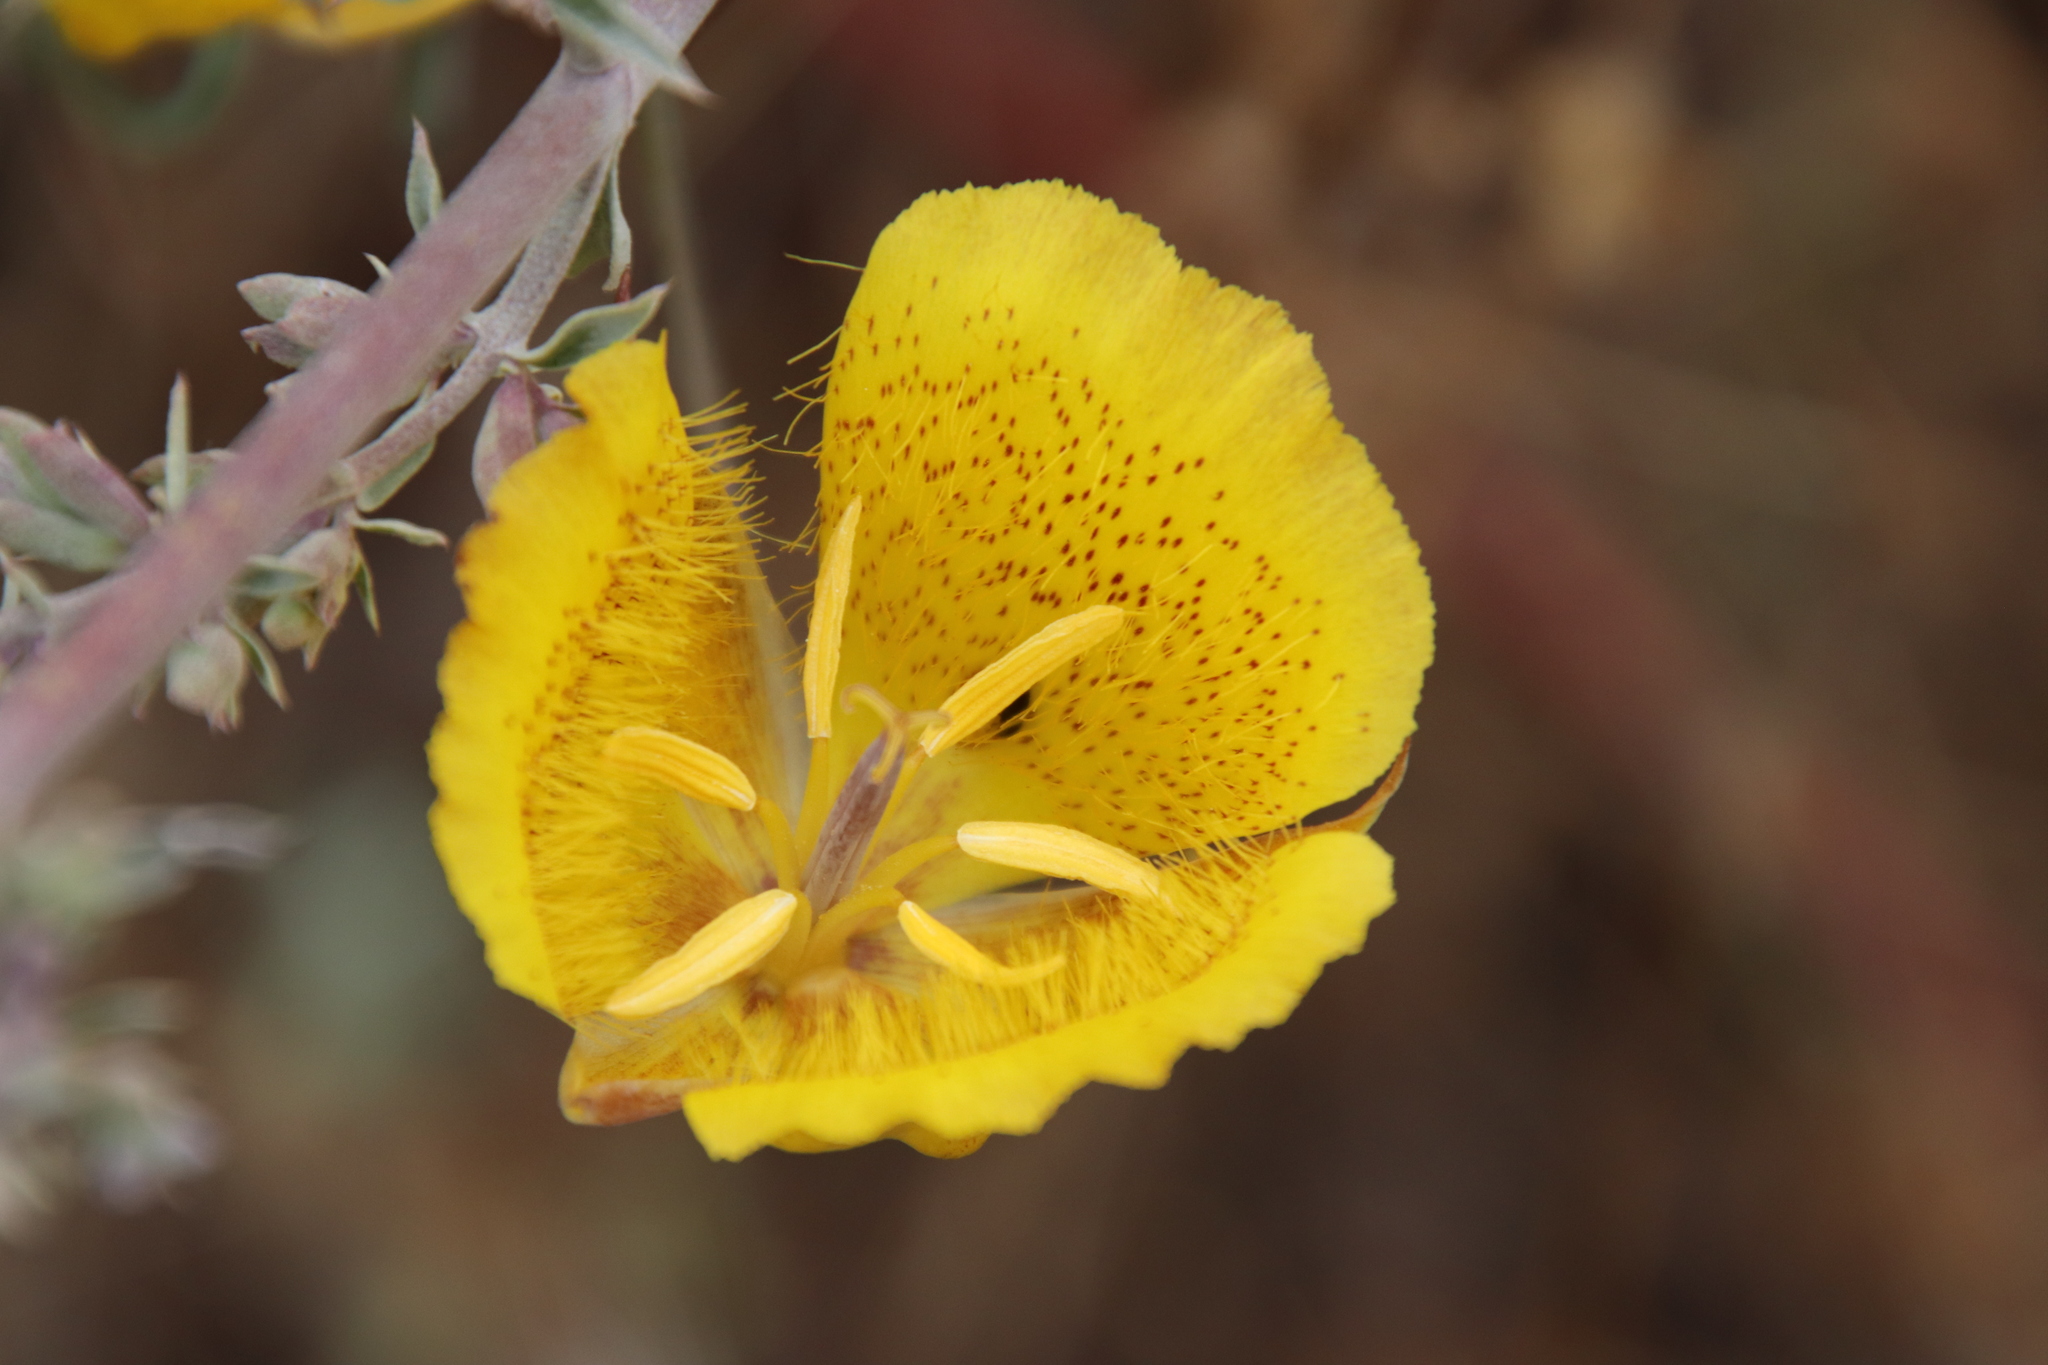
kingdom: Plantae
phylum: Tracheophyta
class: Liliopsida
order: Liliales
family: Liliaceae
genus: Calochortus
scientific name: Calochortus weedii
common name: Weed's mariposa-lily
